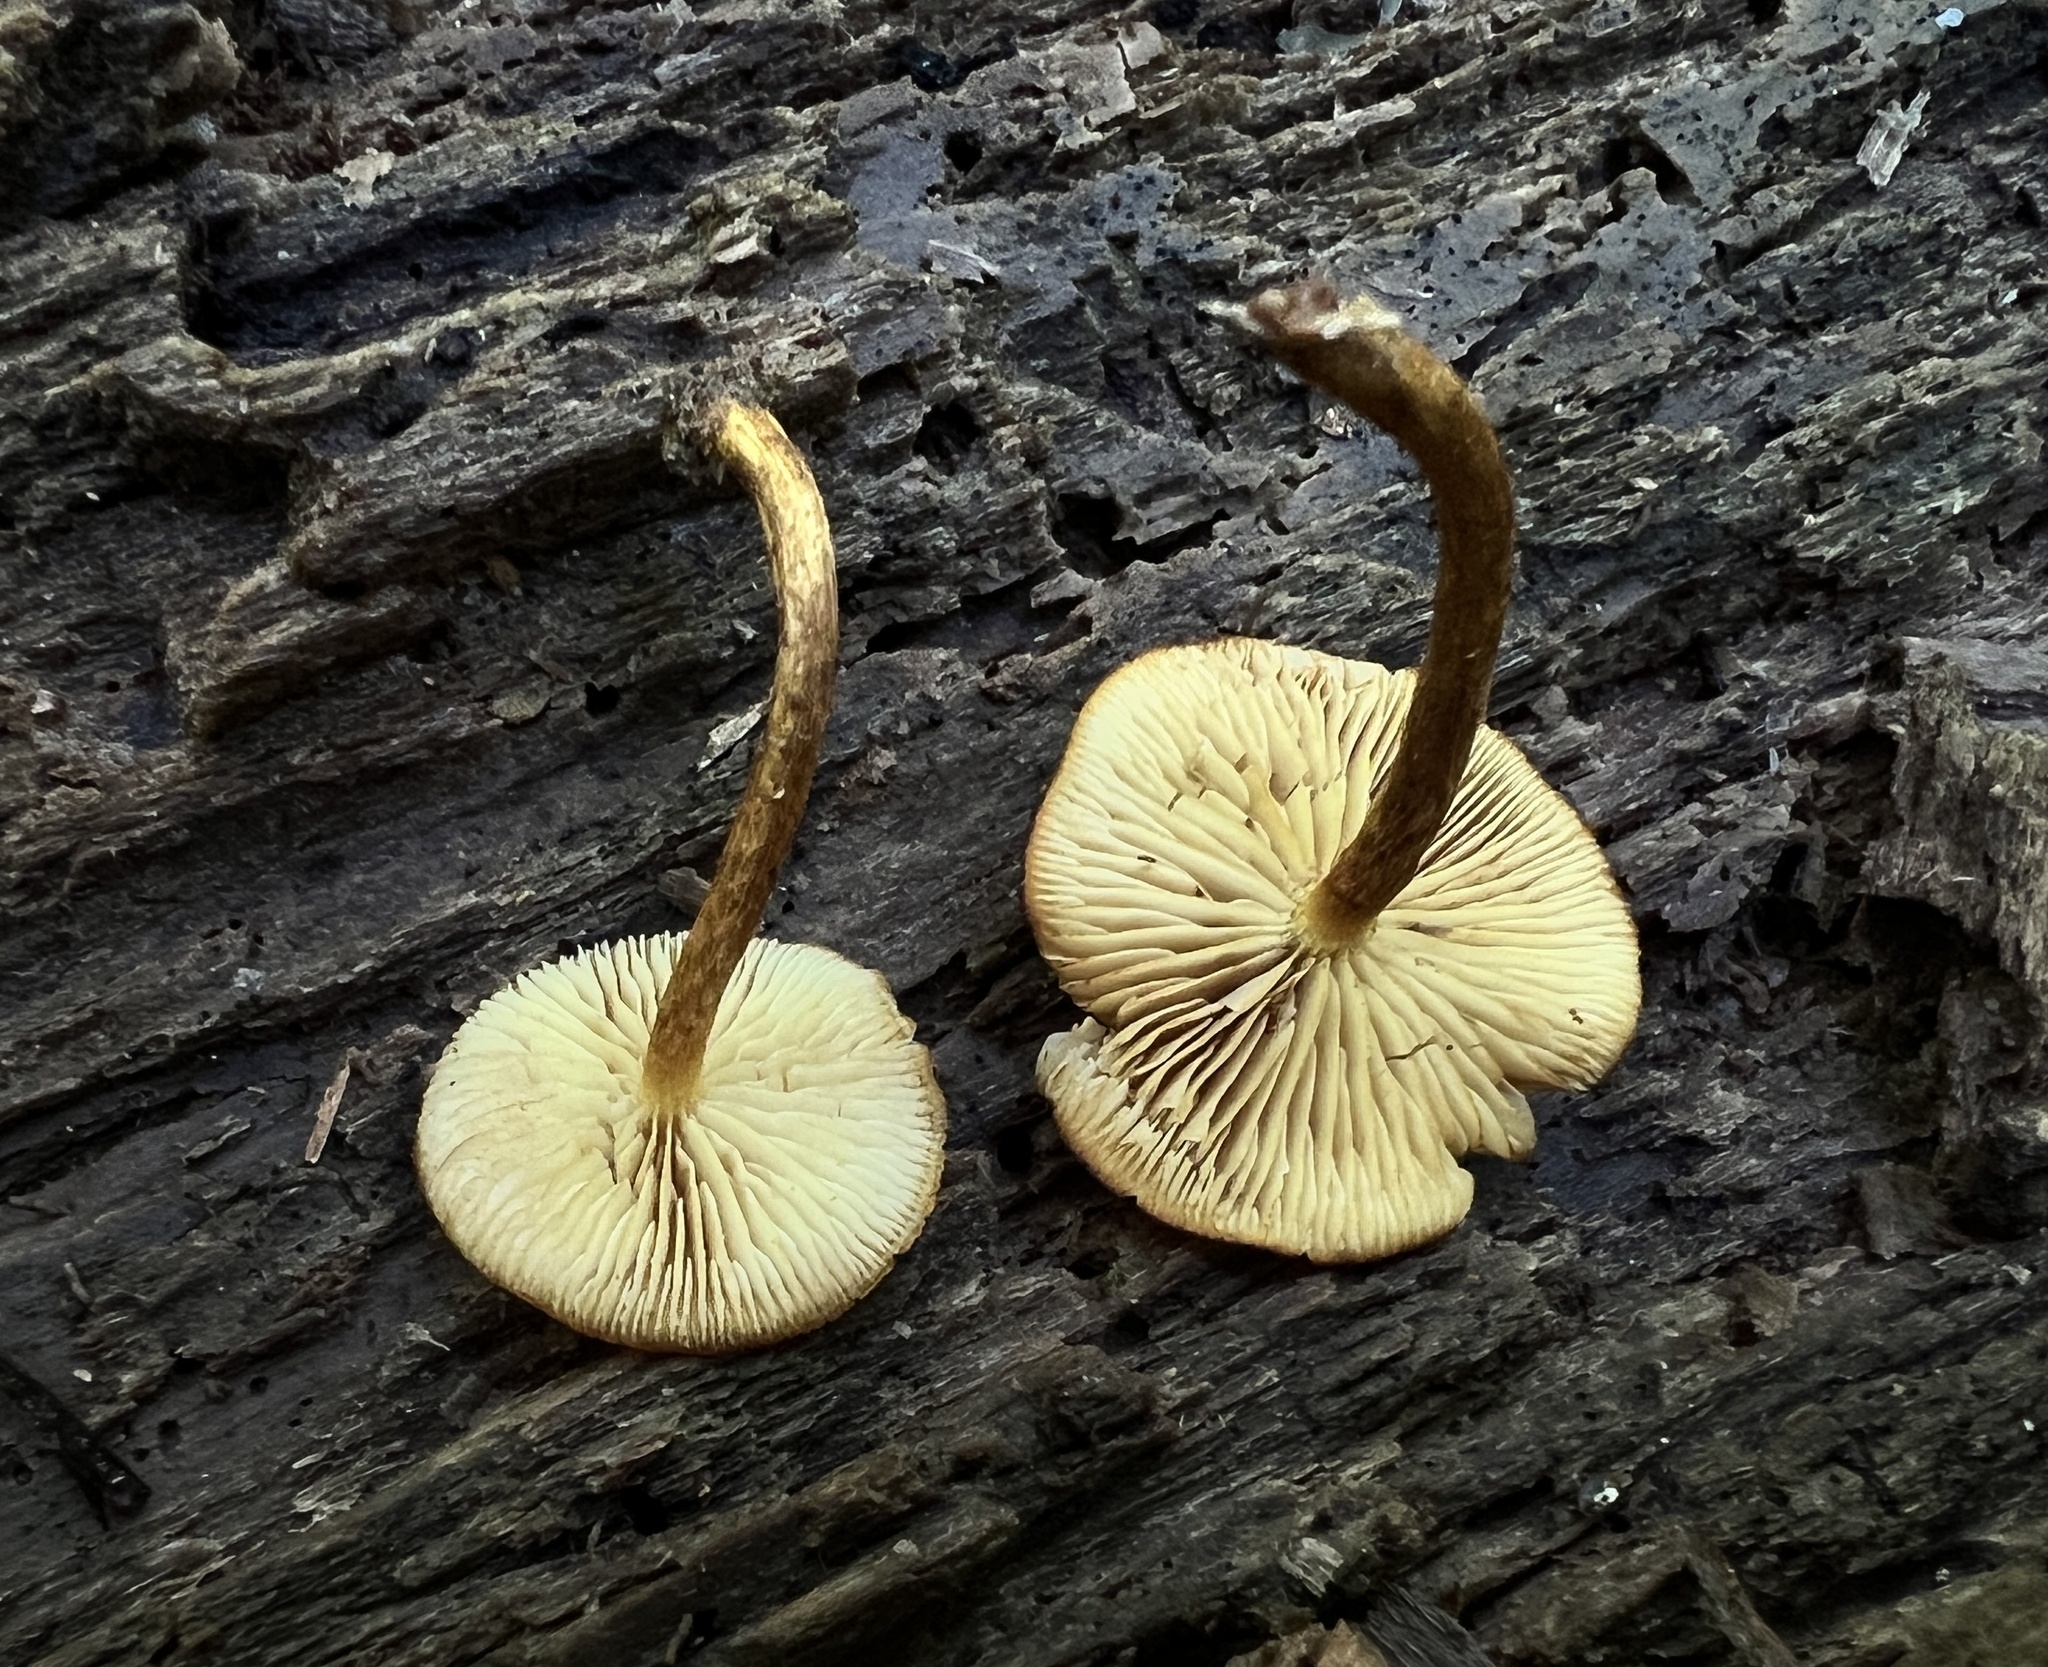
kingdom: Fungi
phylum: Basidiomycota
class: Agaricomycetes
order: Agaricales
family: Strophariaceae
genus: Pholiota
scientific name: Pholiota granulosa
